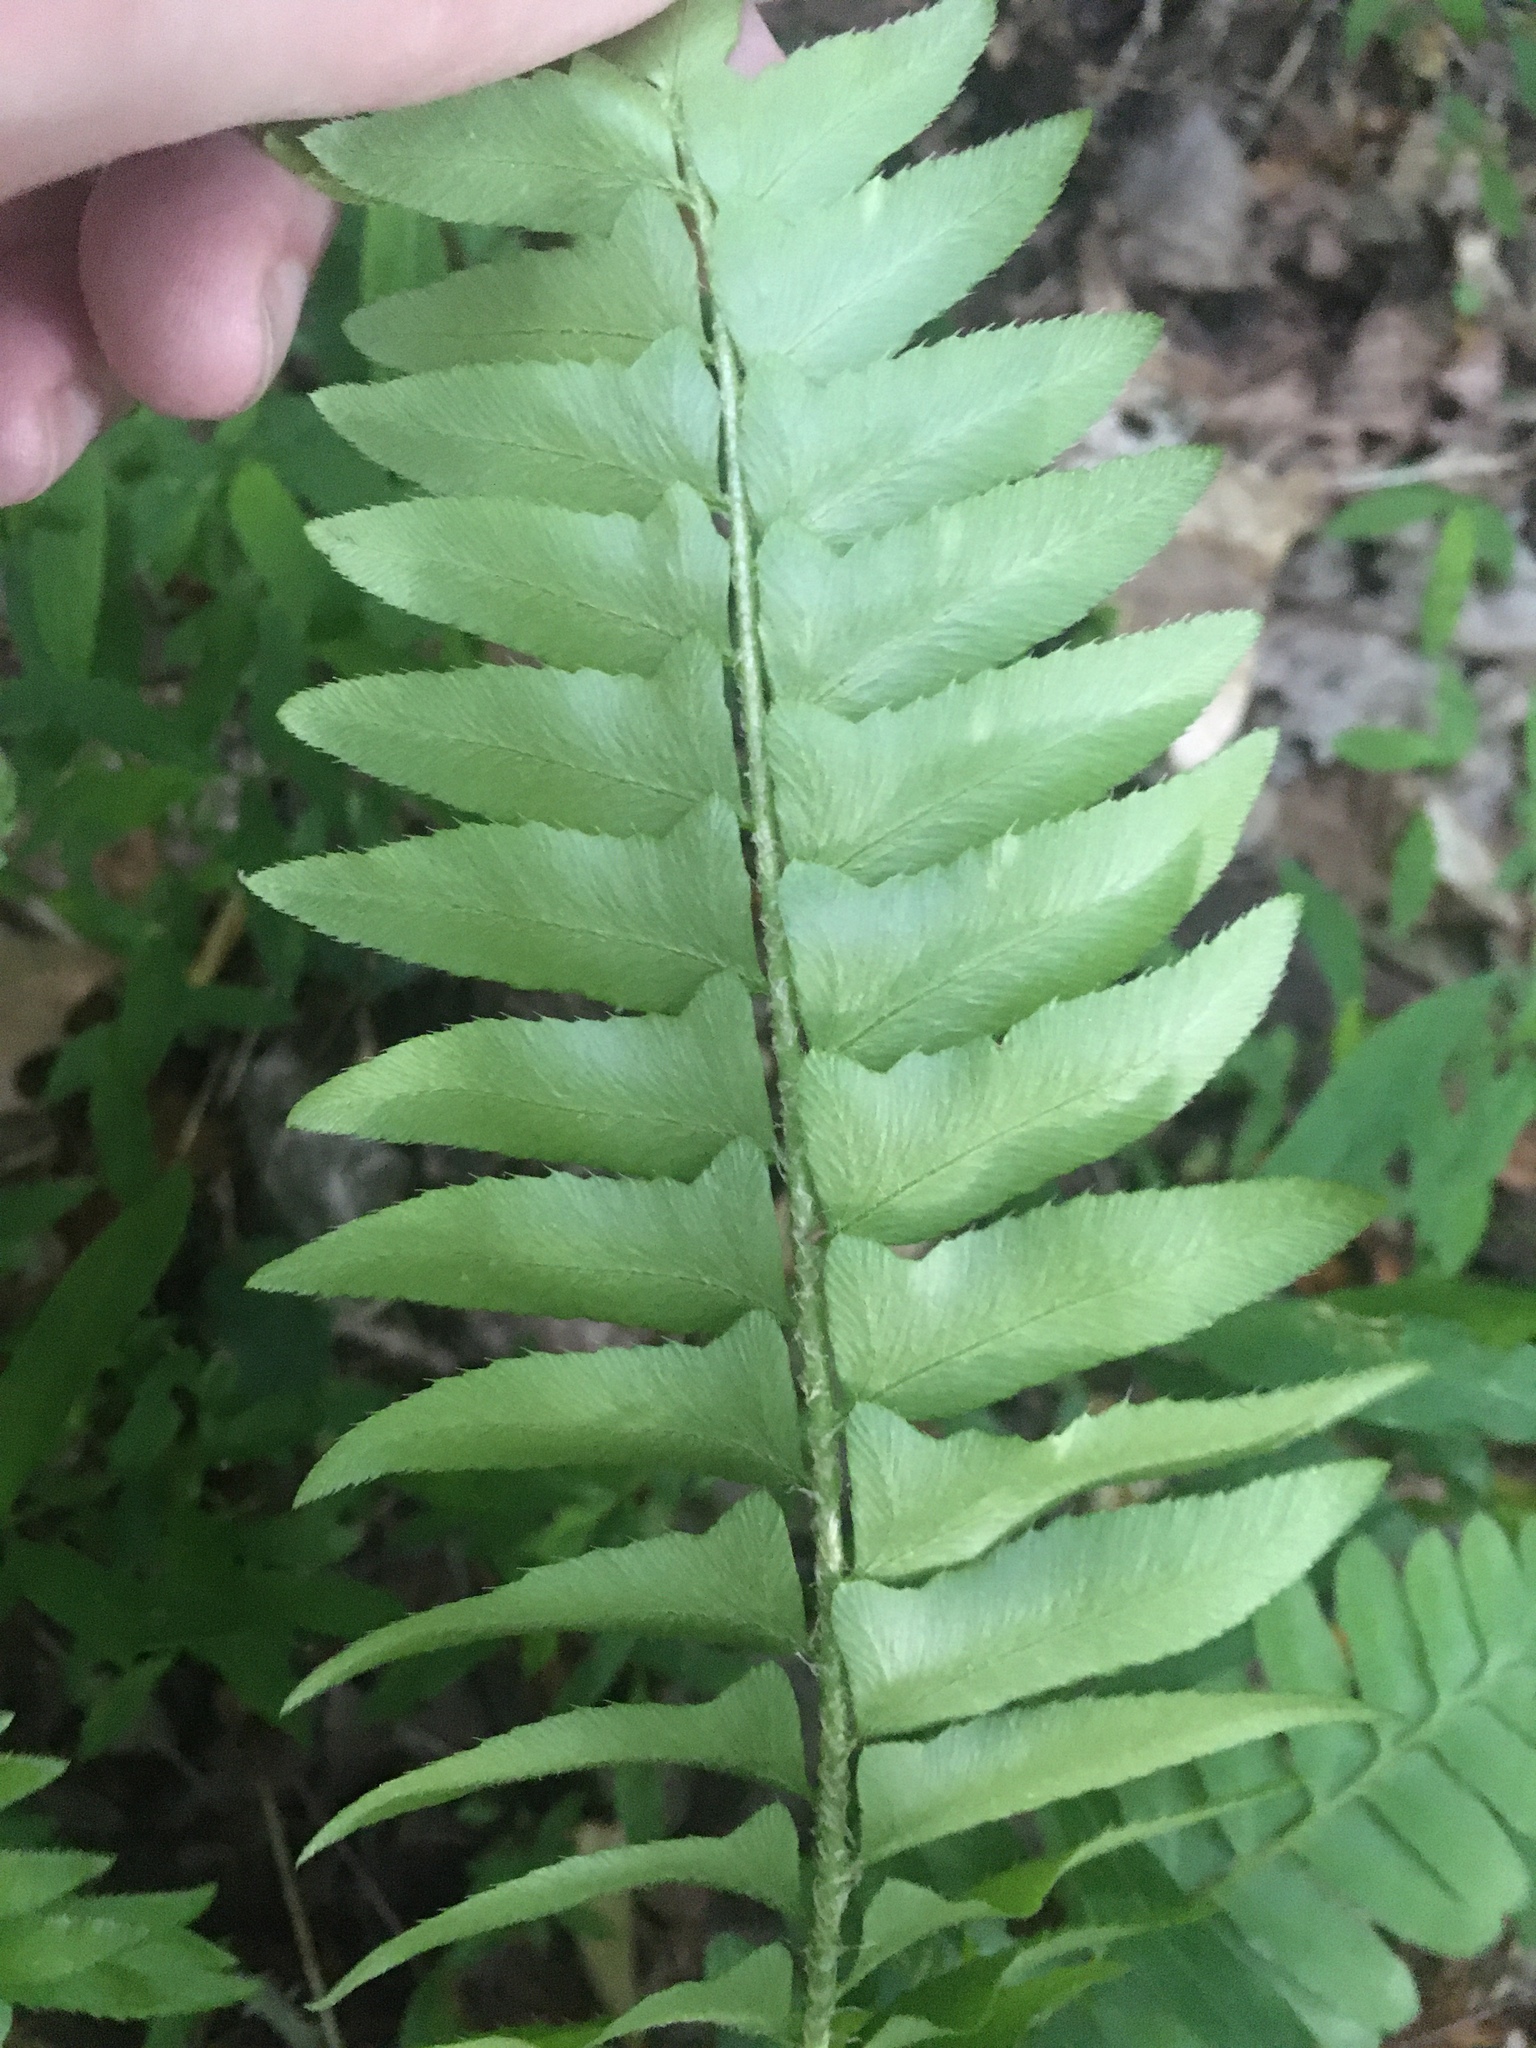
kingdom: Plantae
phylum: Tracheophyta
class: Polypodiopsida
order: Polypodiales
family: Dryopteridaceae
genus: Polystichum
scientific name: Polystichum acrostichoides
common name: Christmas fern
